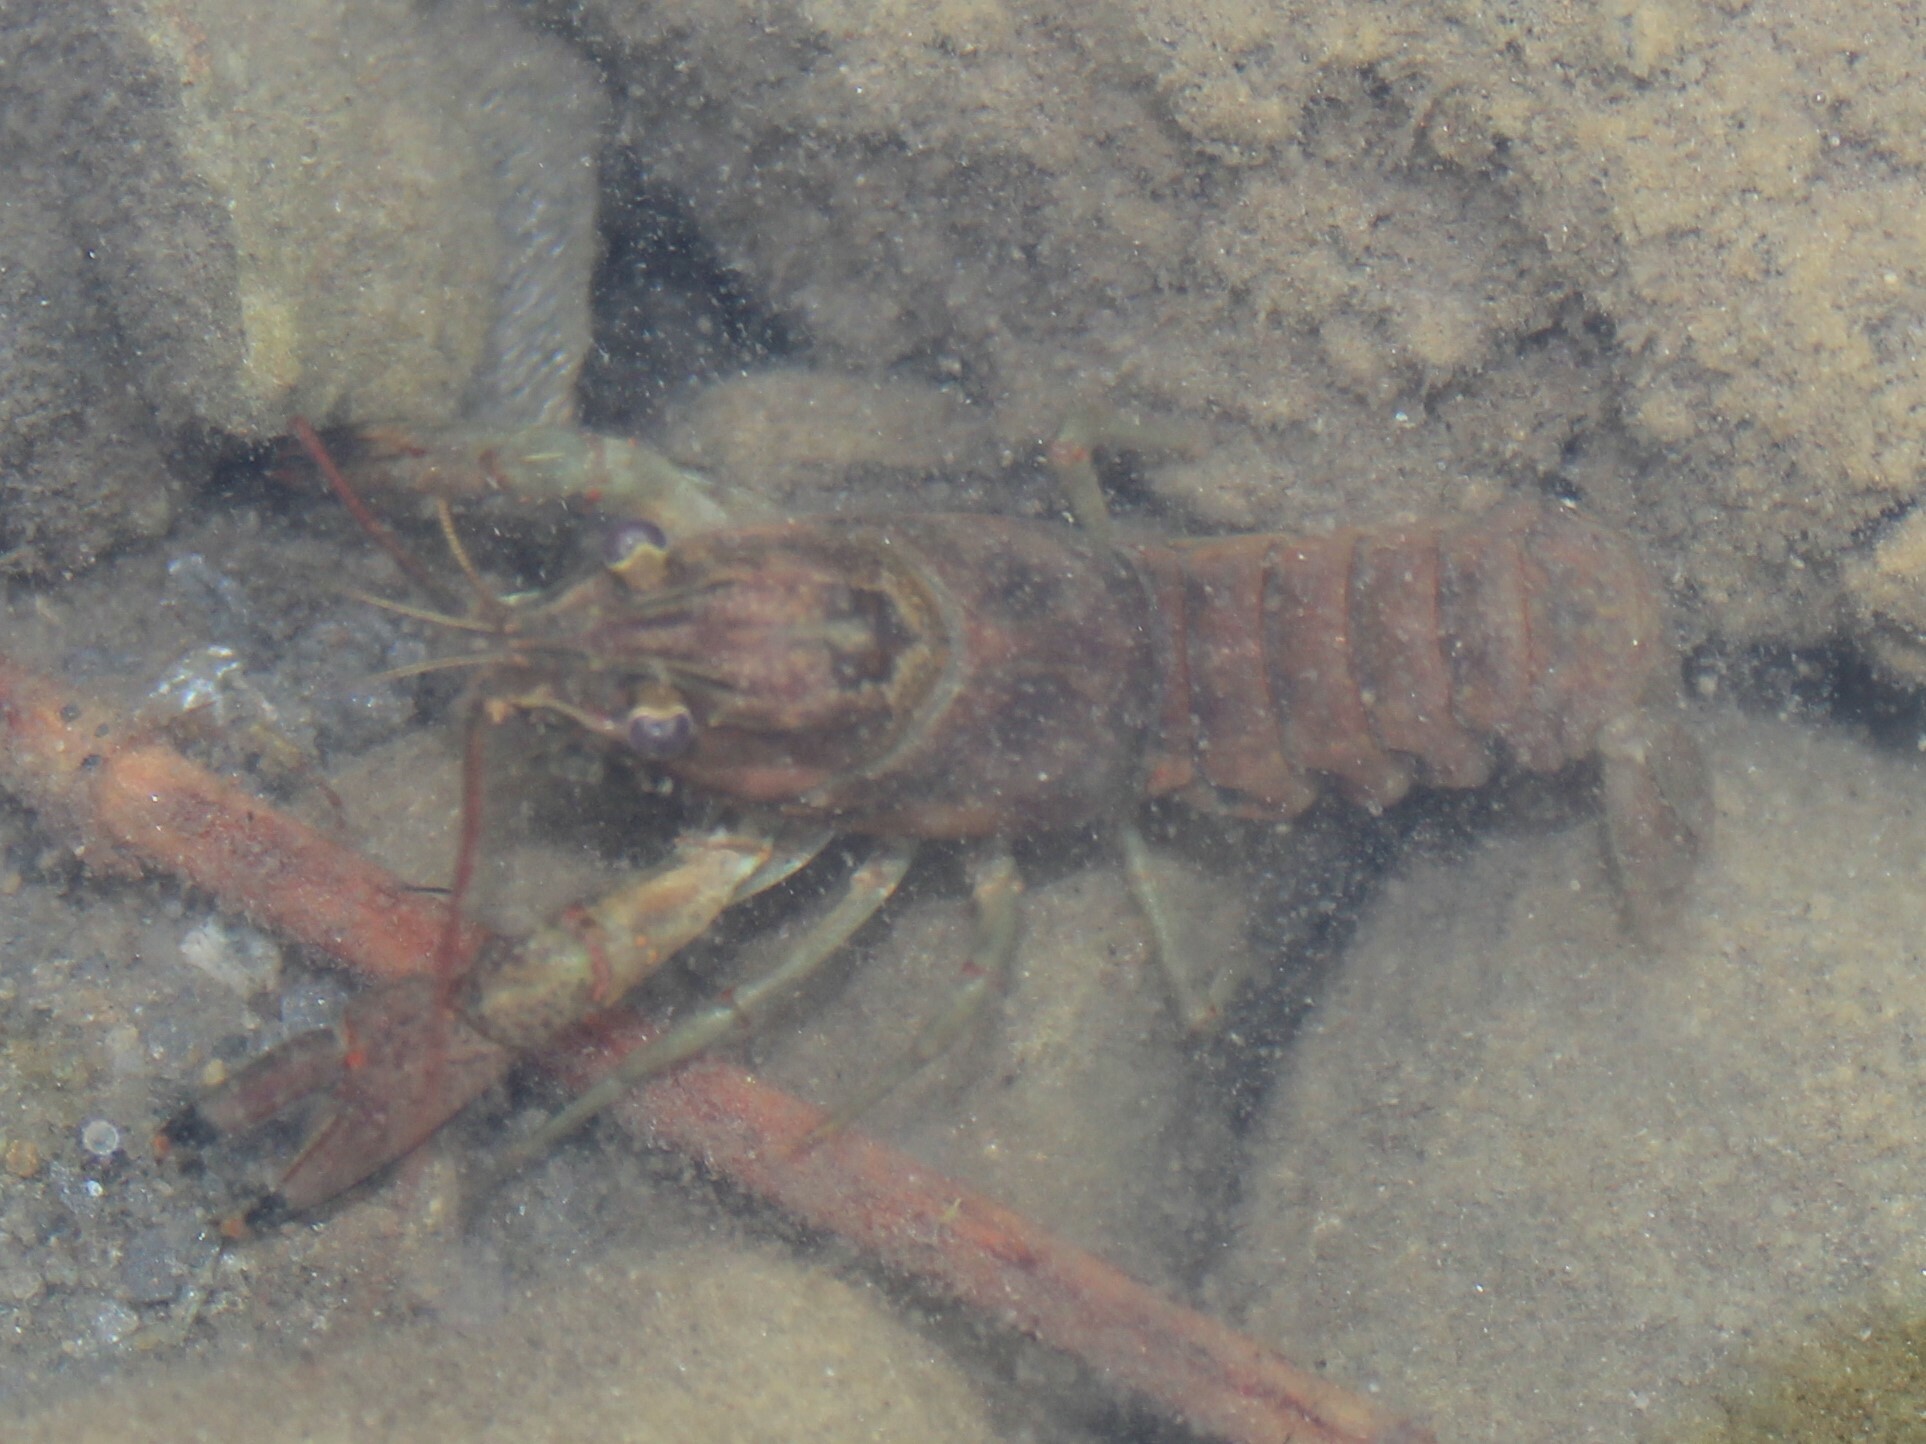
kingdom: Animalia
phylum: Arthropoda
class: Malacostraca
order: Decapoda
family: Cambaridae
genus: Faxonius
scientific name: Faxonius rusticus
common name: Rusty crayfish
